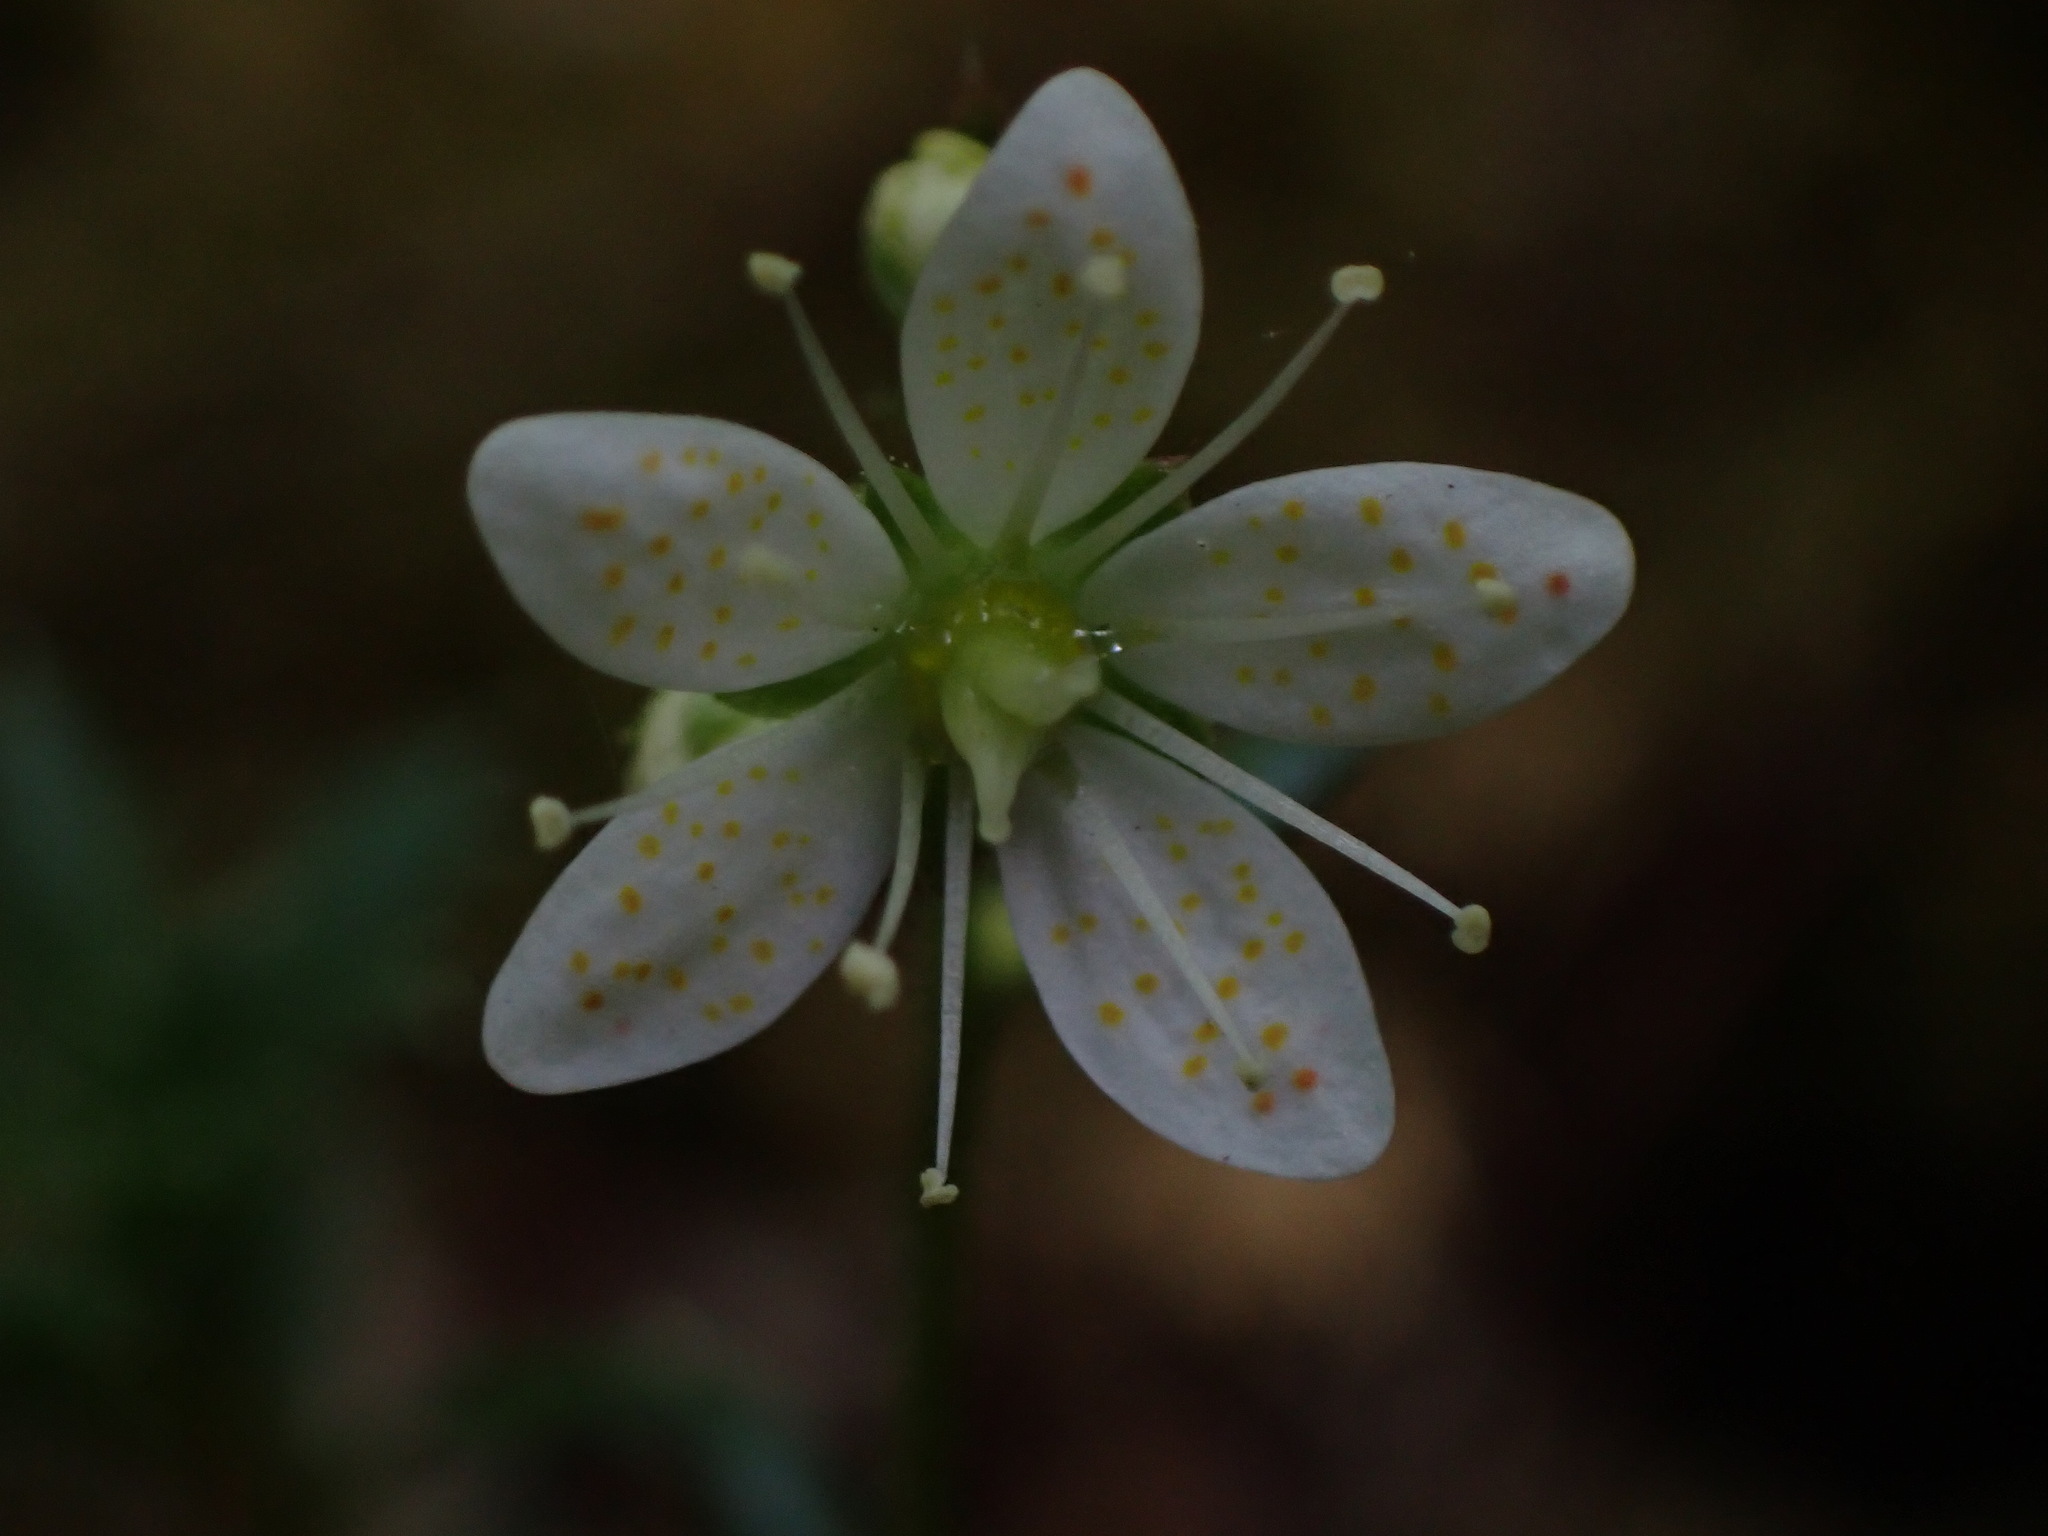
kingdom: Plantae
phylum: Tracheophyta
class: Magnoliopsida
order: Saxifragales
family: Saxifragaceae
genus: Saxifraga
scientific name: Saxifraga tricuspidata
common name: Prickly saxifrage
